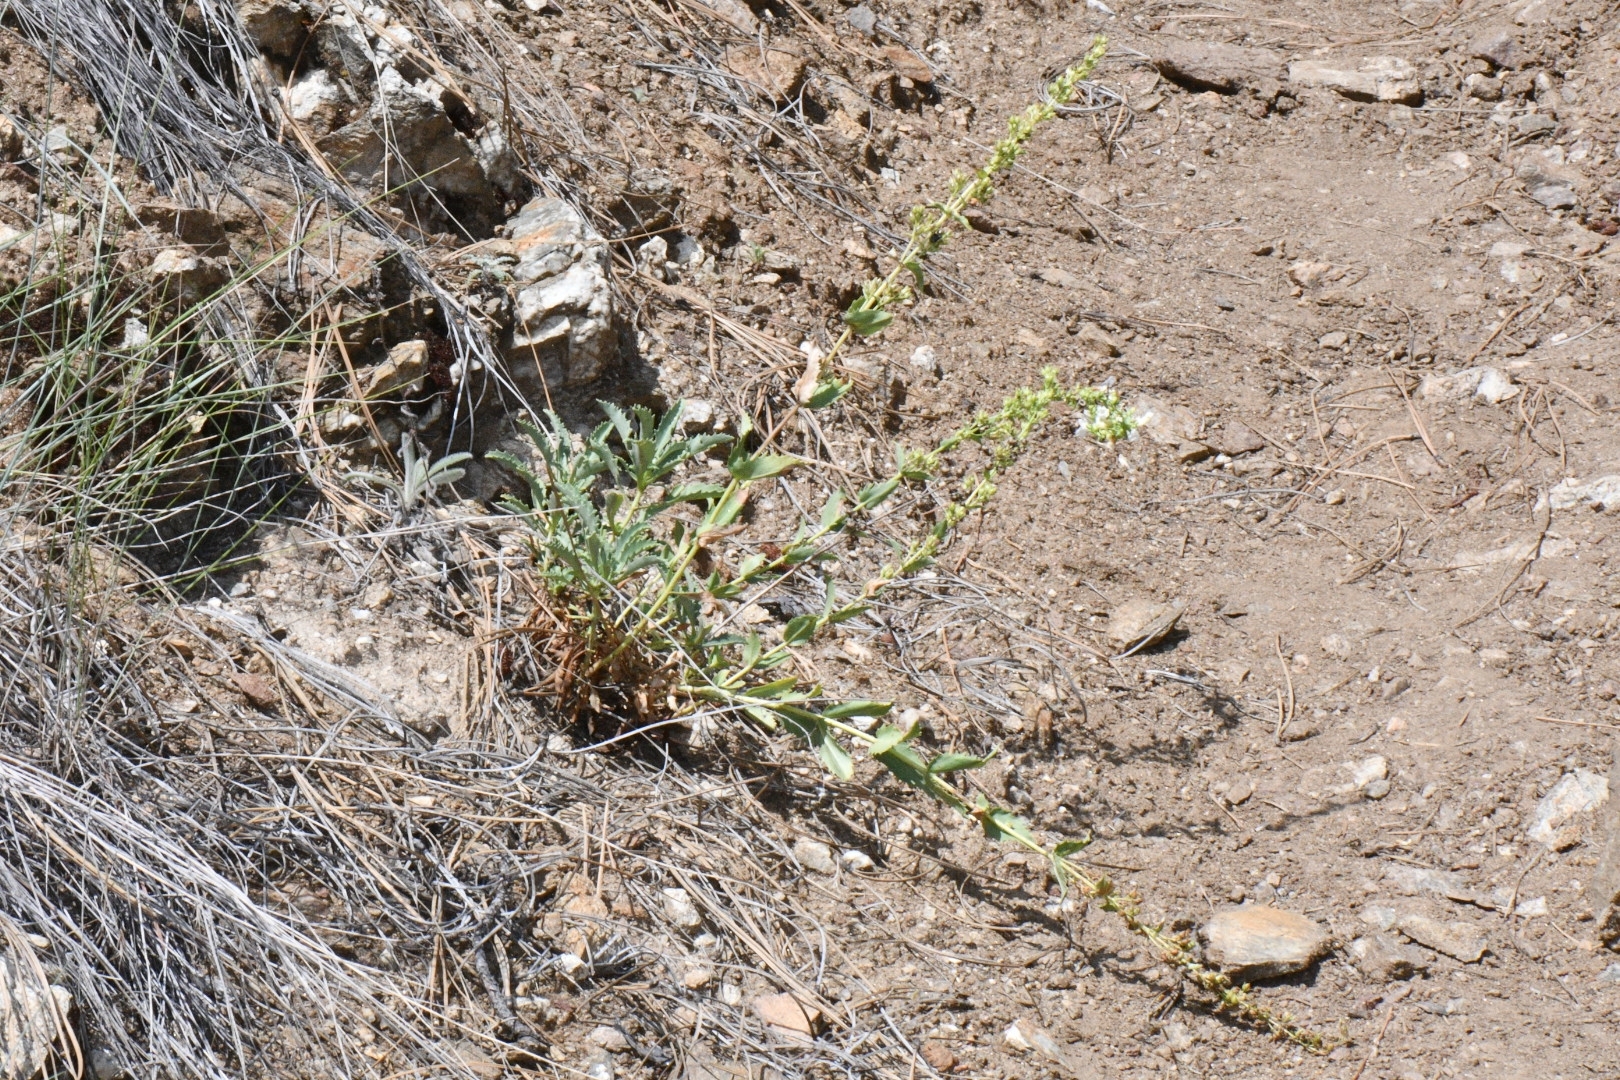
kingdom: Plantae
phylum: Tracheophyta
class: Magnoliopsida
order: Lamiales
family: Plantaginaceae
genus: Penstemon
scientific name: Penstemon deustus
